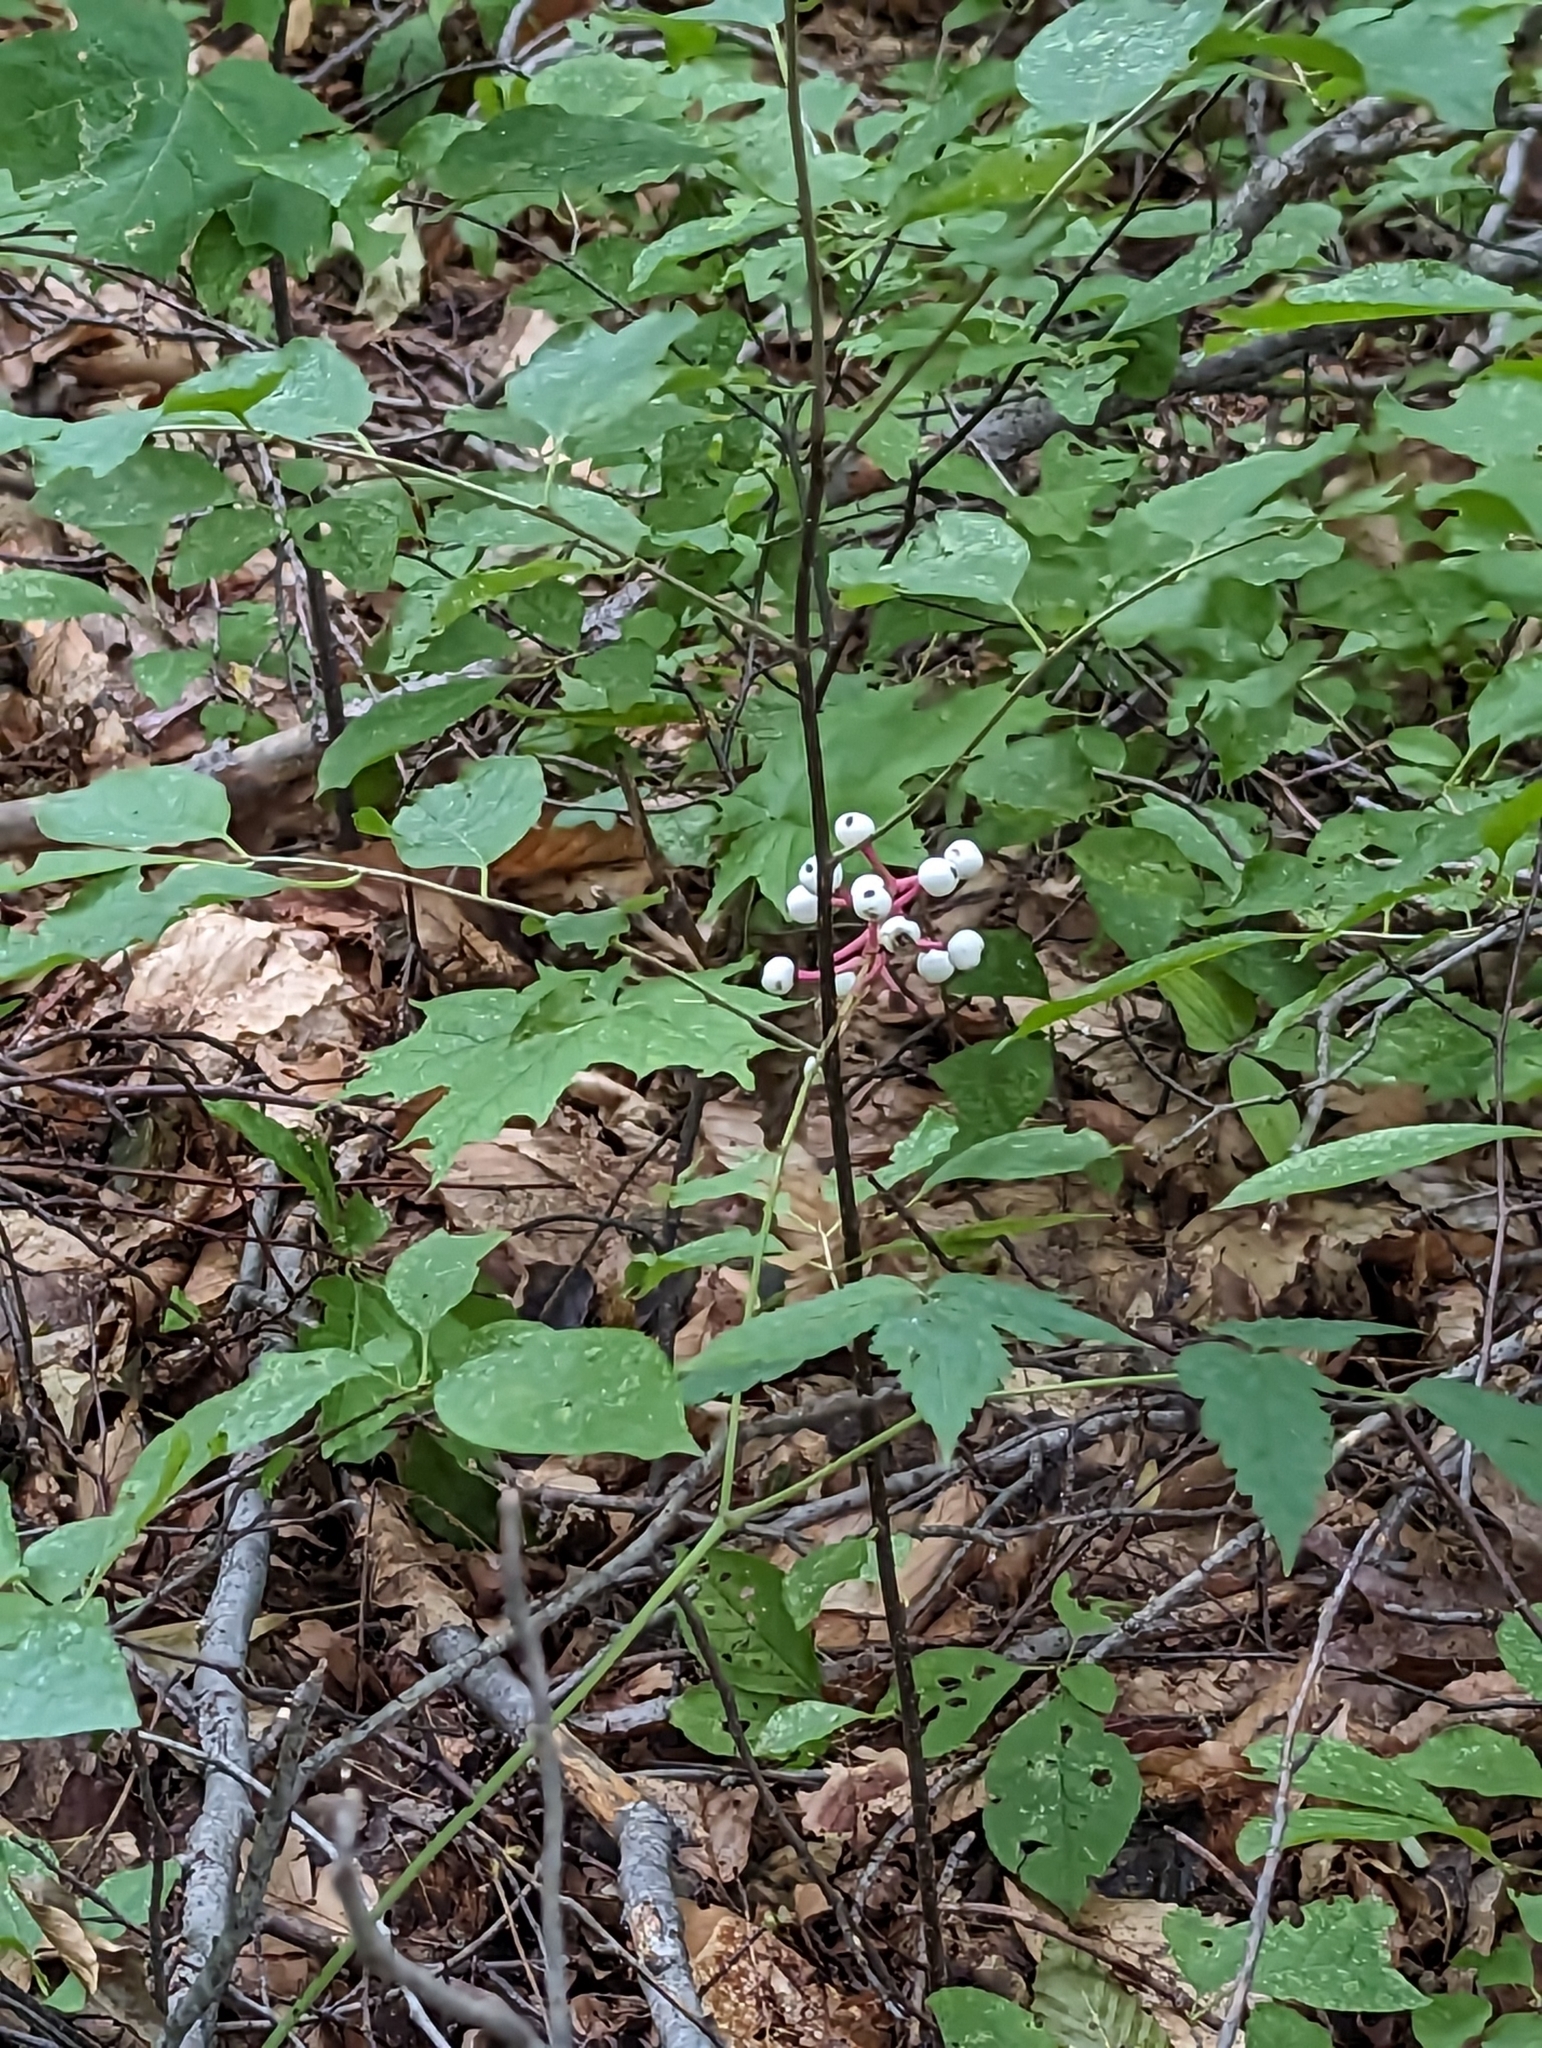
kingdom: Plantae
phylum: Tracheophyta
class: Magnoliopsida
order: Ranunculales
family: Ranunculaceae
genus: Actaea
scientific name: Actaea pachypoda
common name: Doll's-eyes
